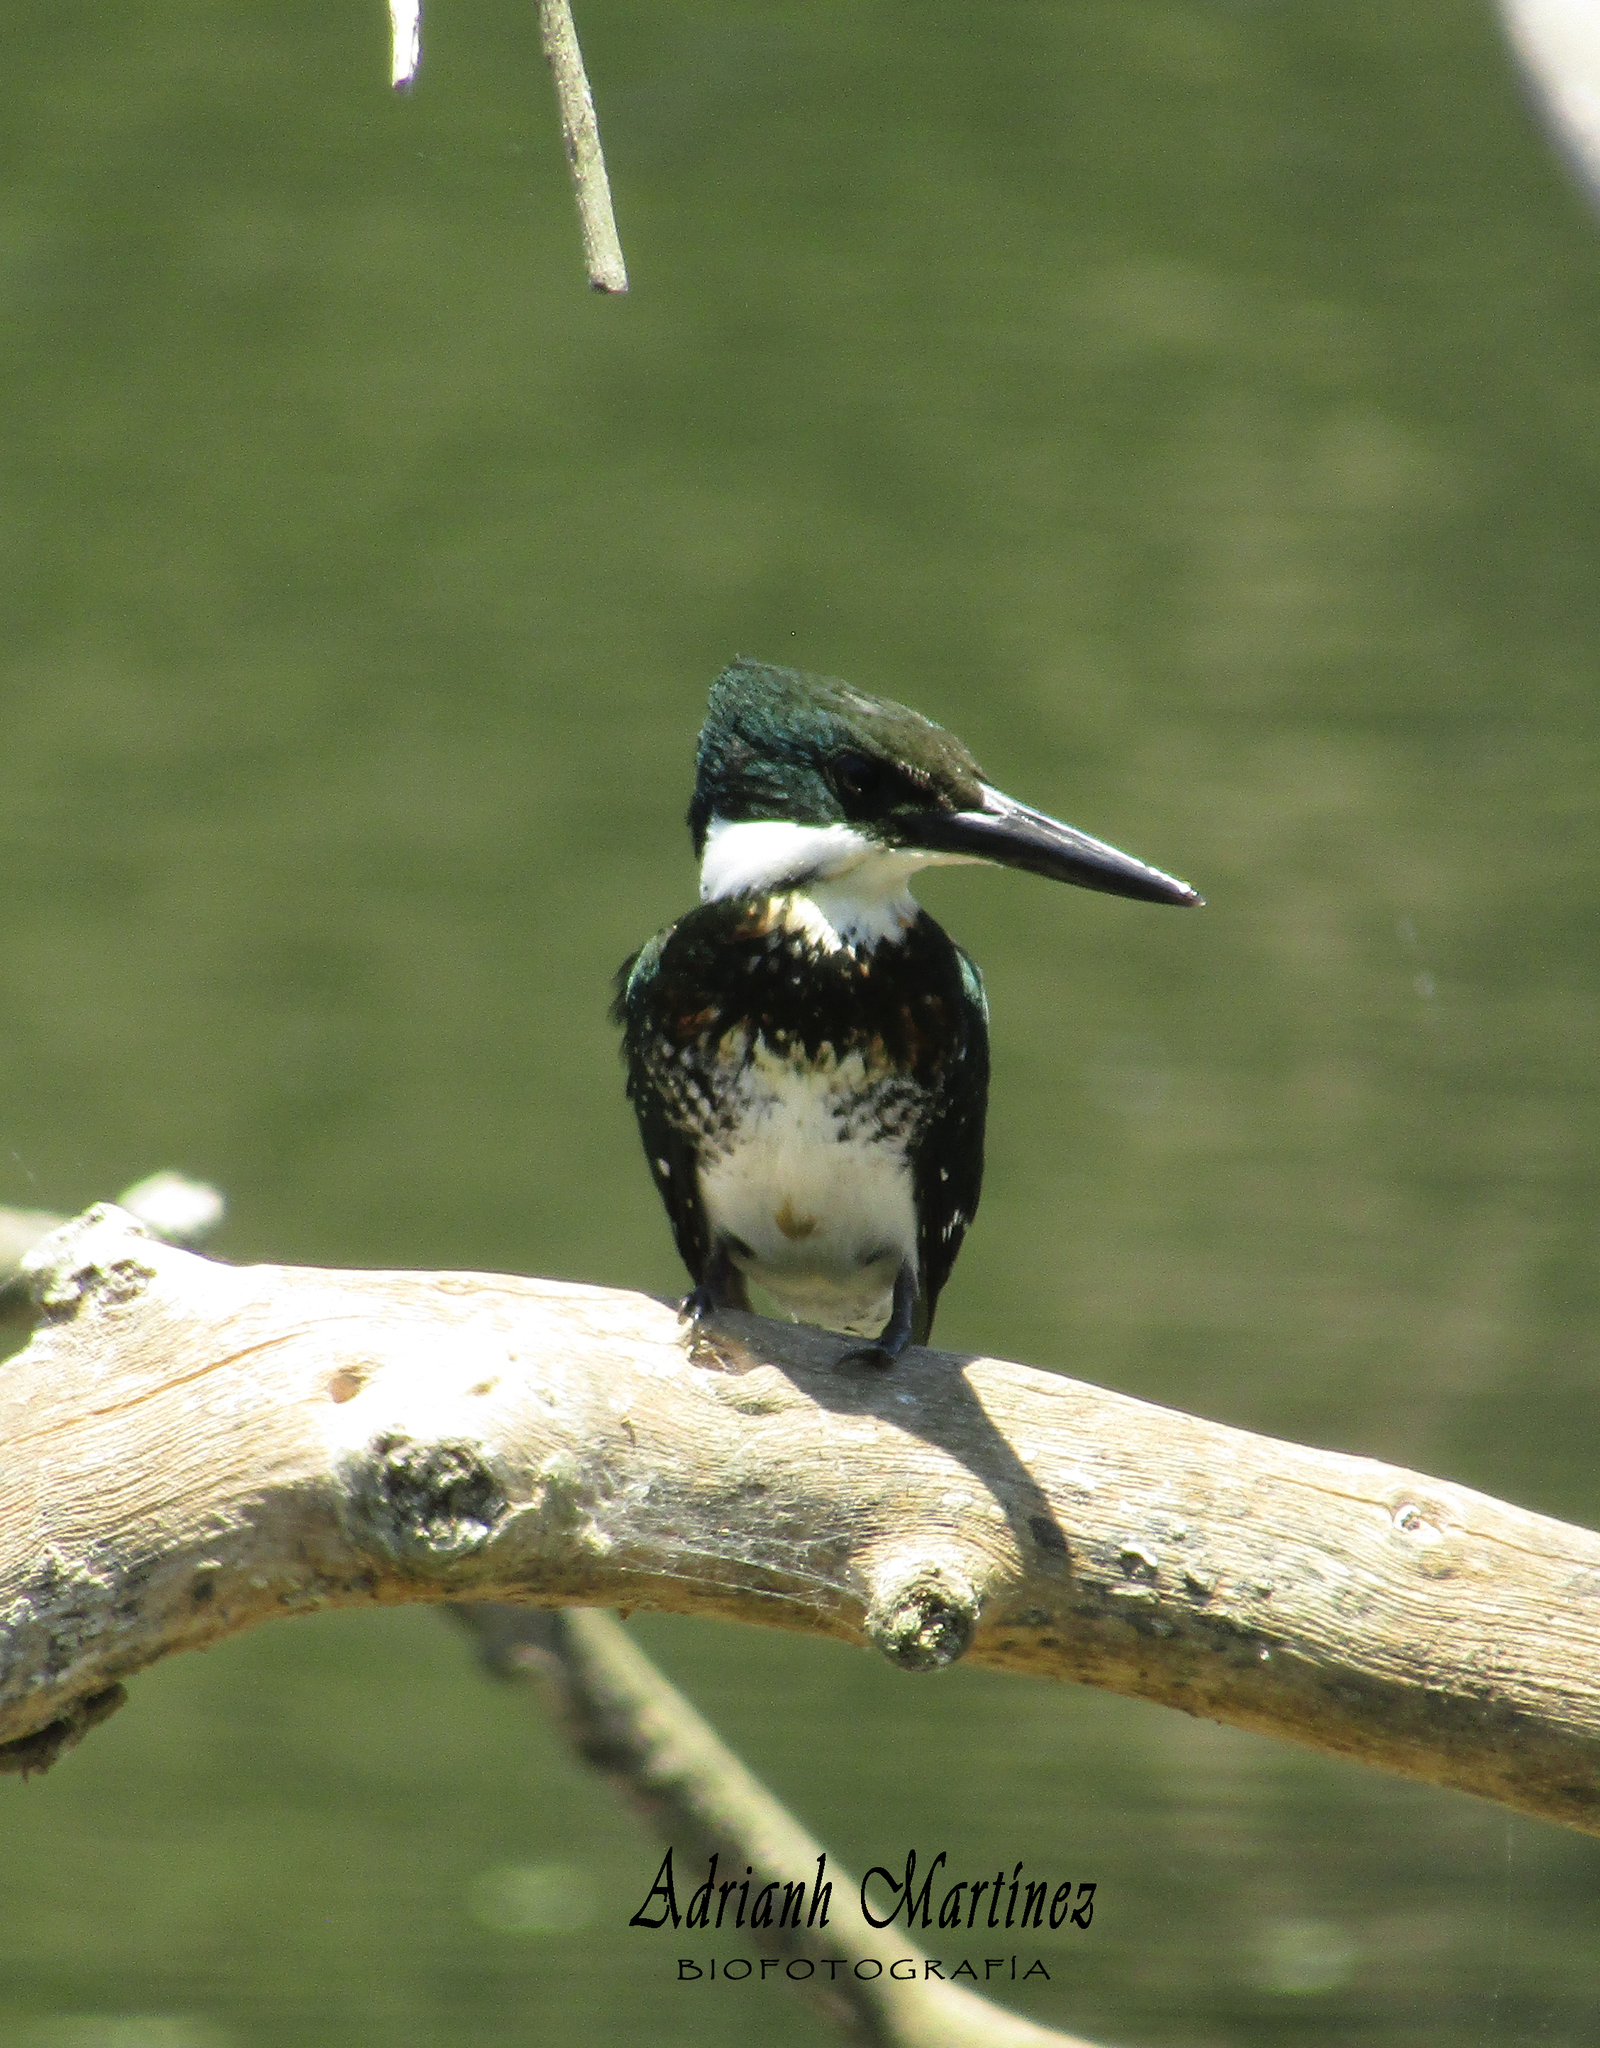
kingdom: Animalia
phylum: Chordata
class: Aves
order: Coraciiformes
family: Alcedinidae
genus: Chloroceryle
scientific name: Chloroceryle americana
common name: Green kingfisher
